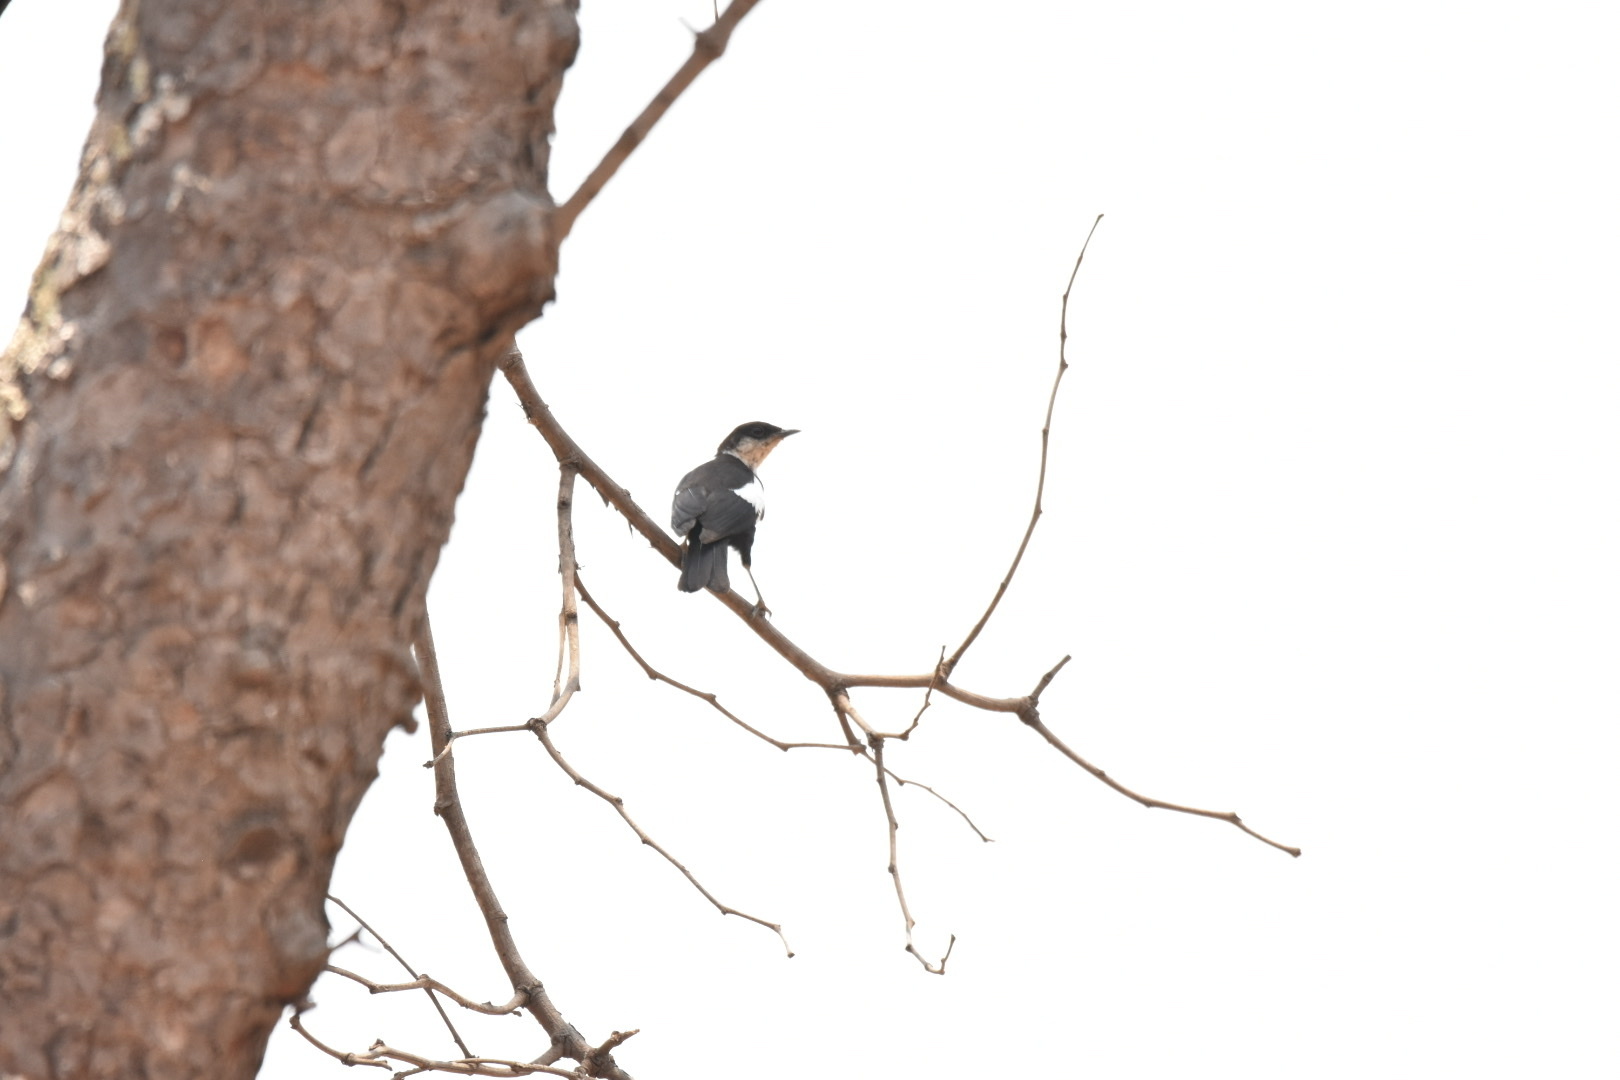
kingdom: Animalia
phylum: Chordata
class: Aves
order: Passeriformes
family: Muscicapidae
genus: Pentholaea
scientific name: Pentholaea arnotti
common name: Arnot's chat
